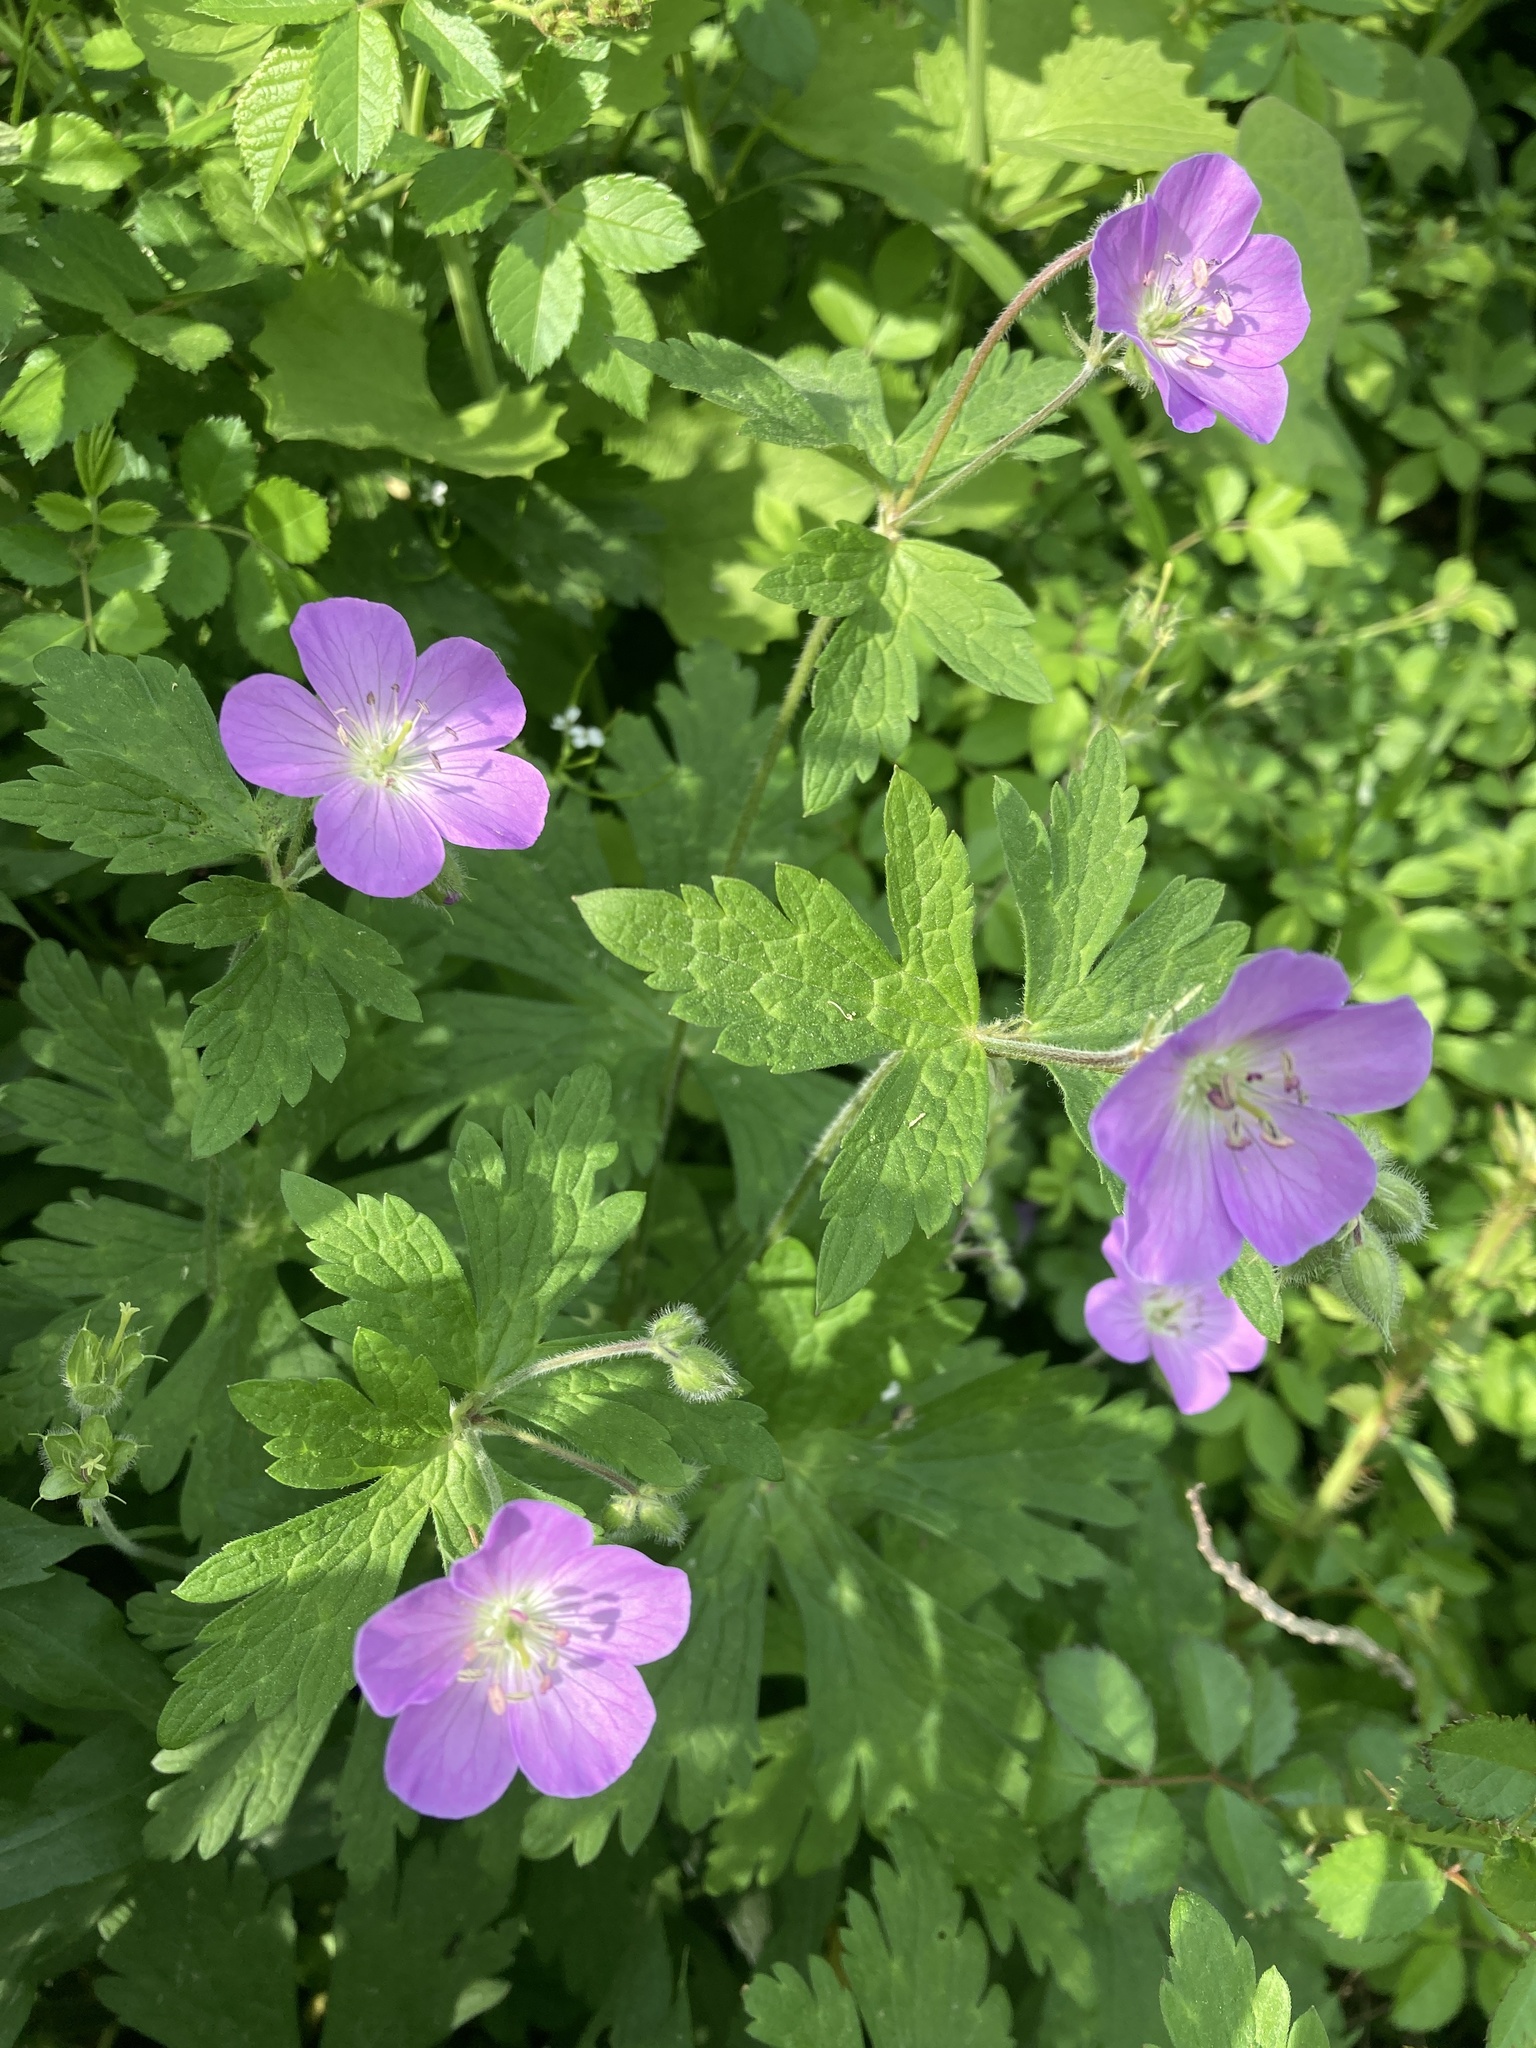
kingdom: Plantae
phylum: Tracheophyta
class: Magnoliopsida
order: Geraniales
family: Geraniaceae
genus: Geranium
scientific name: Geranium maculatum
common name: Spotted geranium
